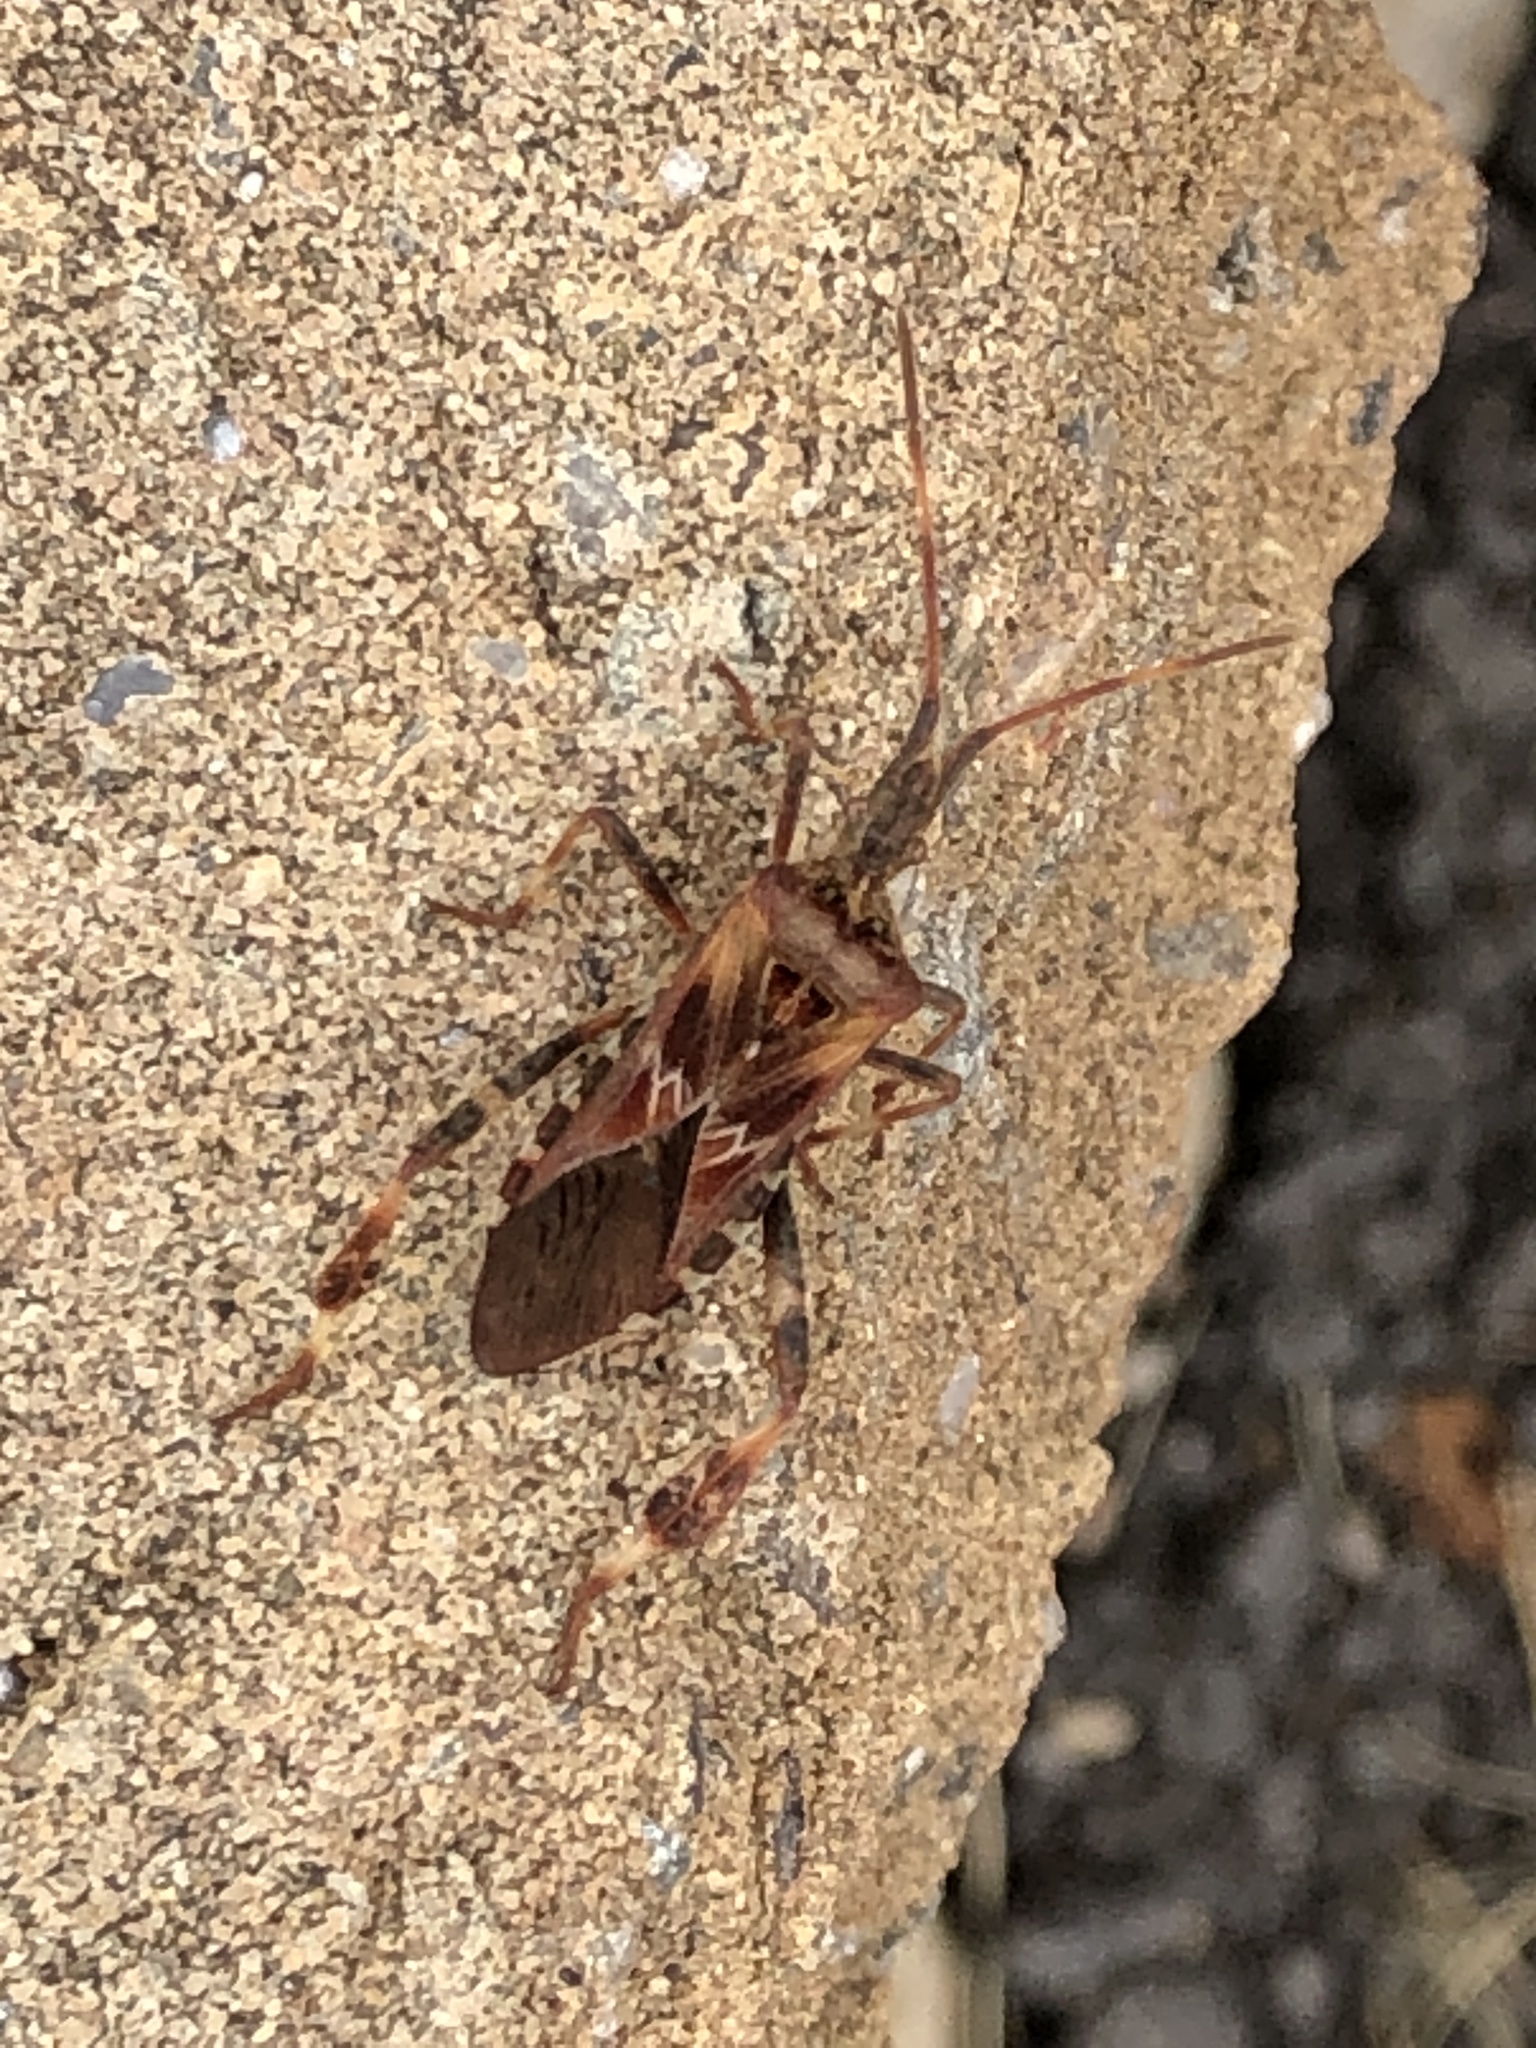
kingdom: Animalia
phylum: Arthropoda
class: Insecta
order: Hemiptera
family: Coreidae
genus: Leptoglossus
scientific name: Leptoglossus occidentalis
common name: Western conifer-seed bug
